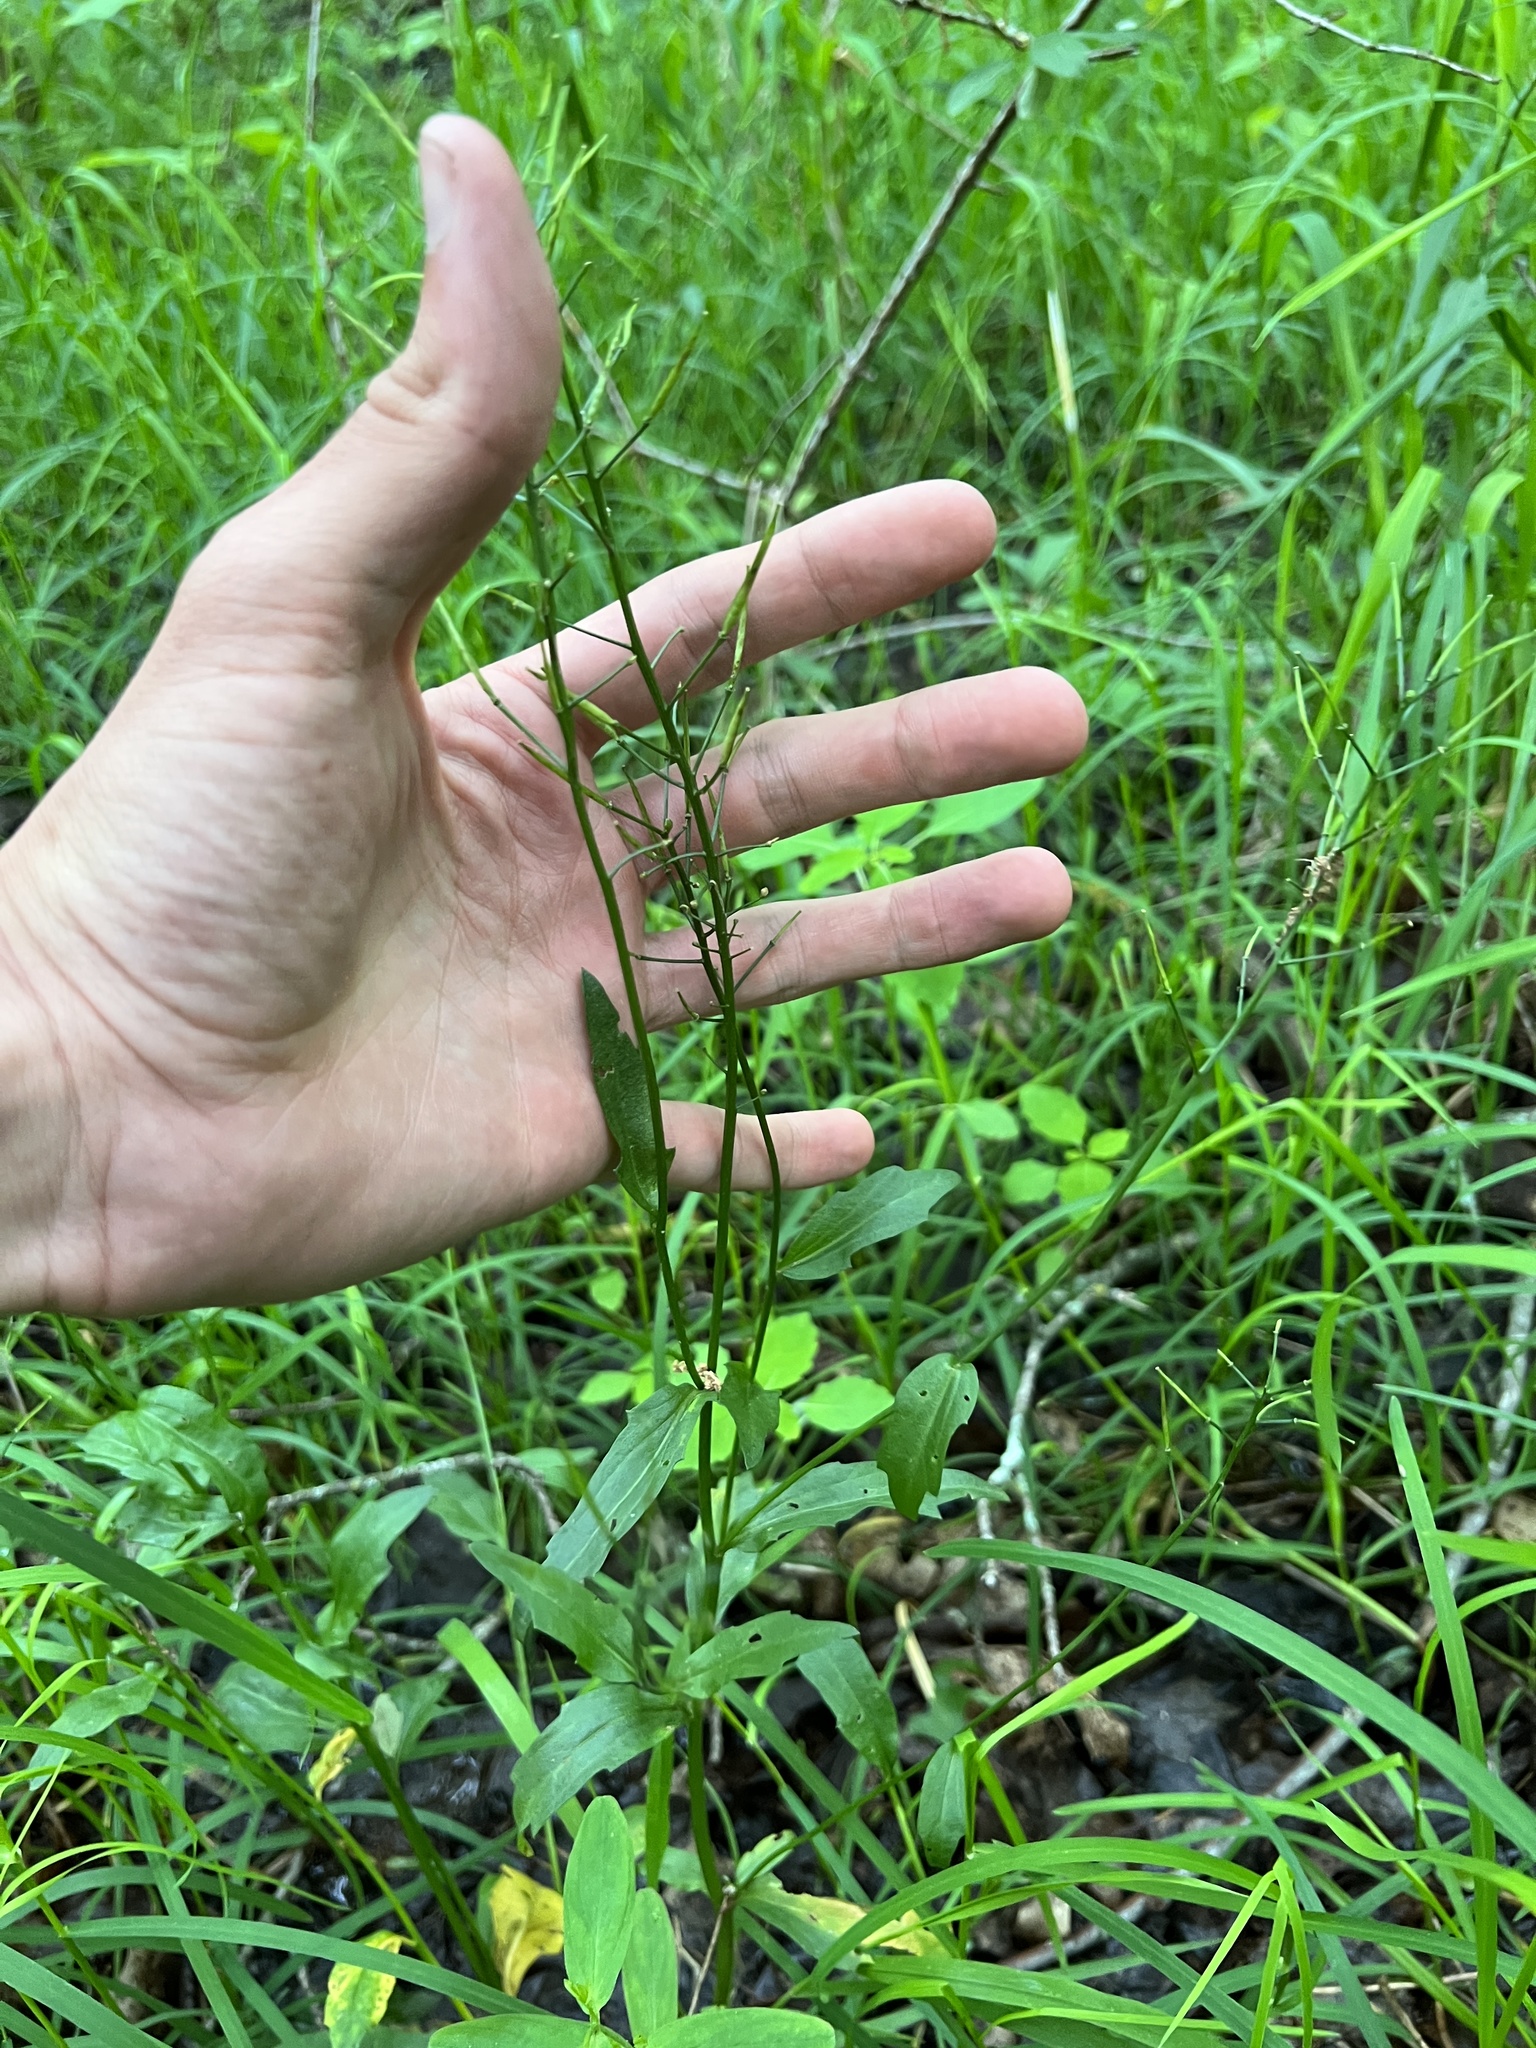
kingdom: Plantae
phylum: Tracheophyta
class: Magnoliopsida
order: Brassicales
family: Brassicaceae
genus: Cardamine
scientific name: Cardamine bulbosa
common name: Spring cress
